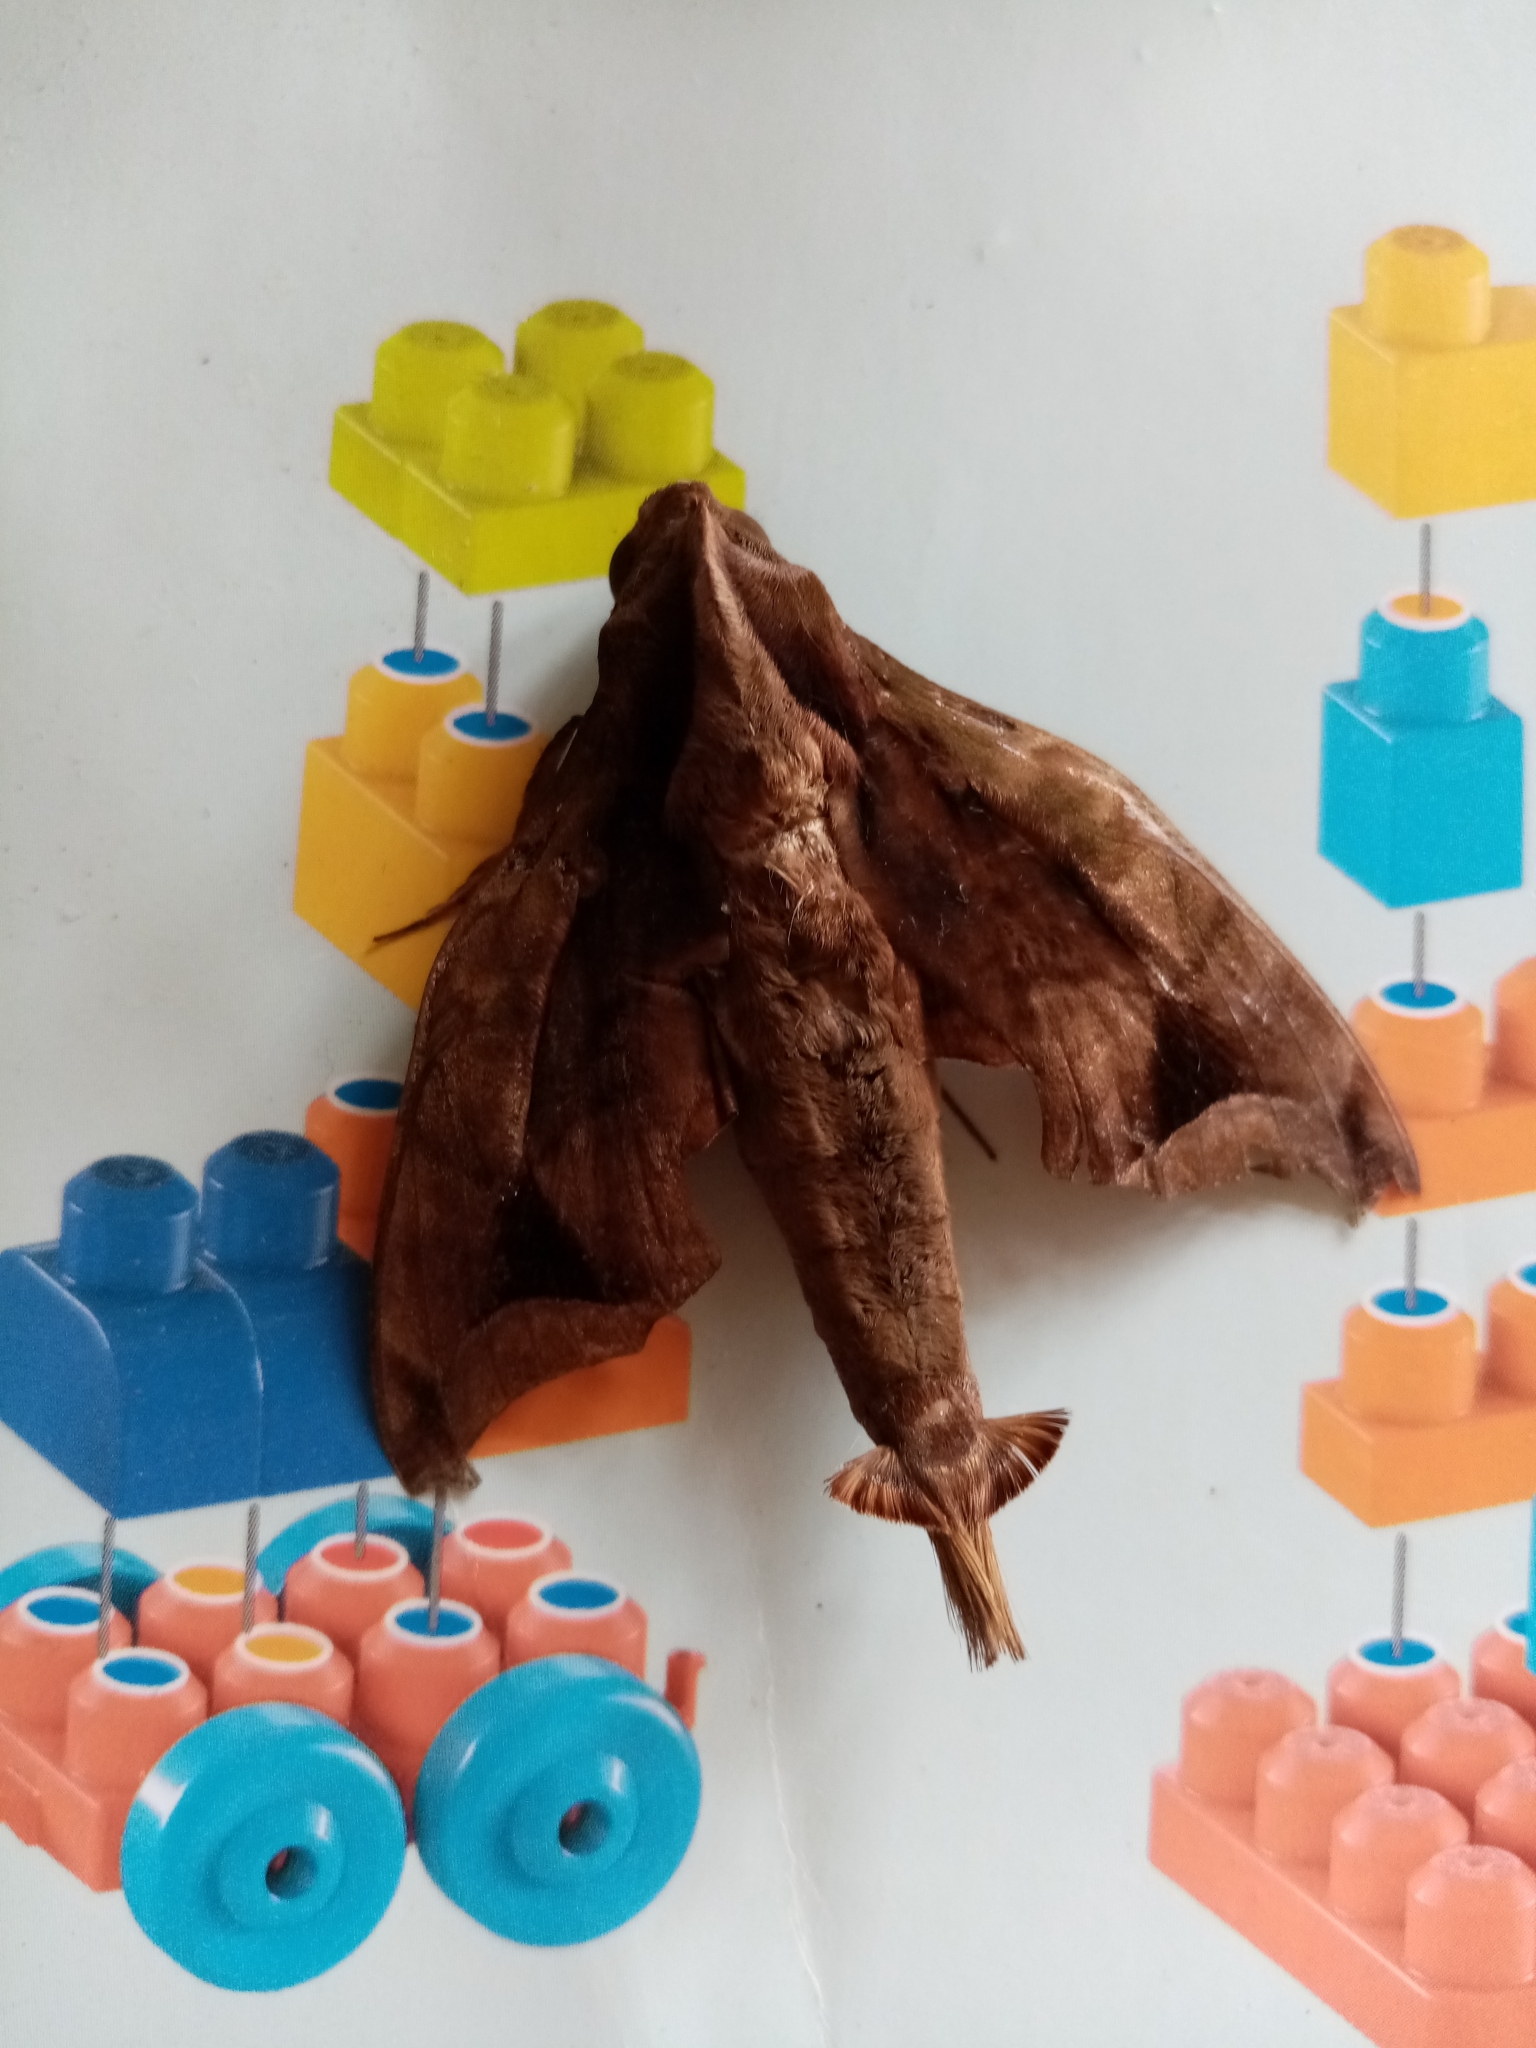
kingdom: Animalia
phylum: Arthropoda
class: Insecta
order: Lepidoptera
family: Sphingidae
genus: Enyo
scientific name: Enyo gorgon
